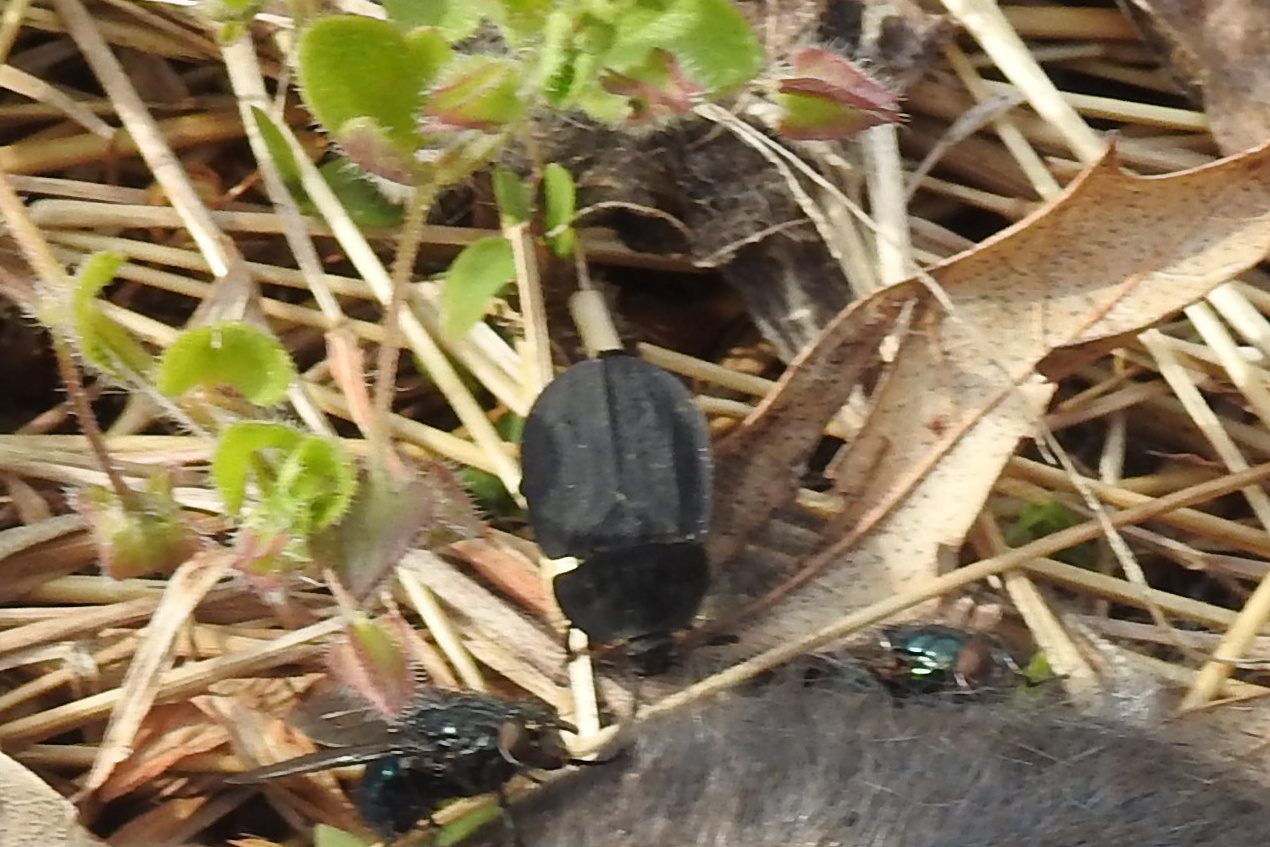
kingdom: Animalia
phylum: Arthropoda
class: Insecta
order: Coleoptera
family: Staphylinidae
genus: Oiceoptoma
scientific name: Oiceoptoma inaequale
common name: Ridged carrion beetle
